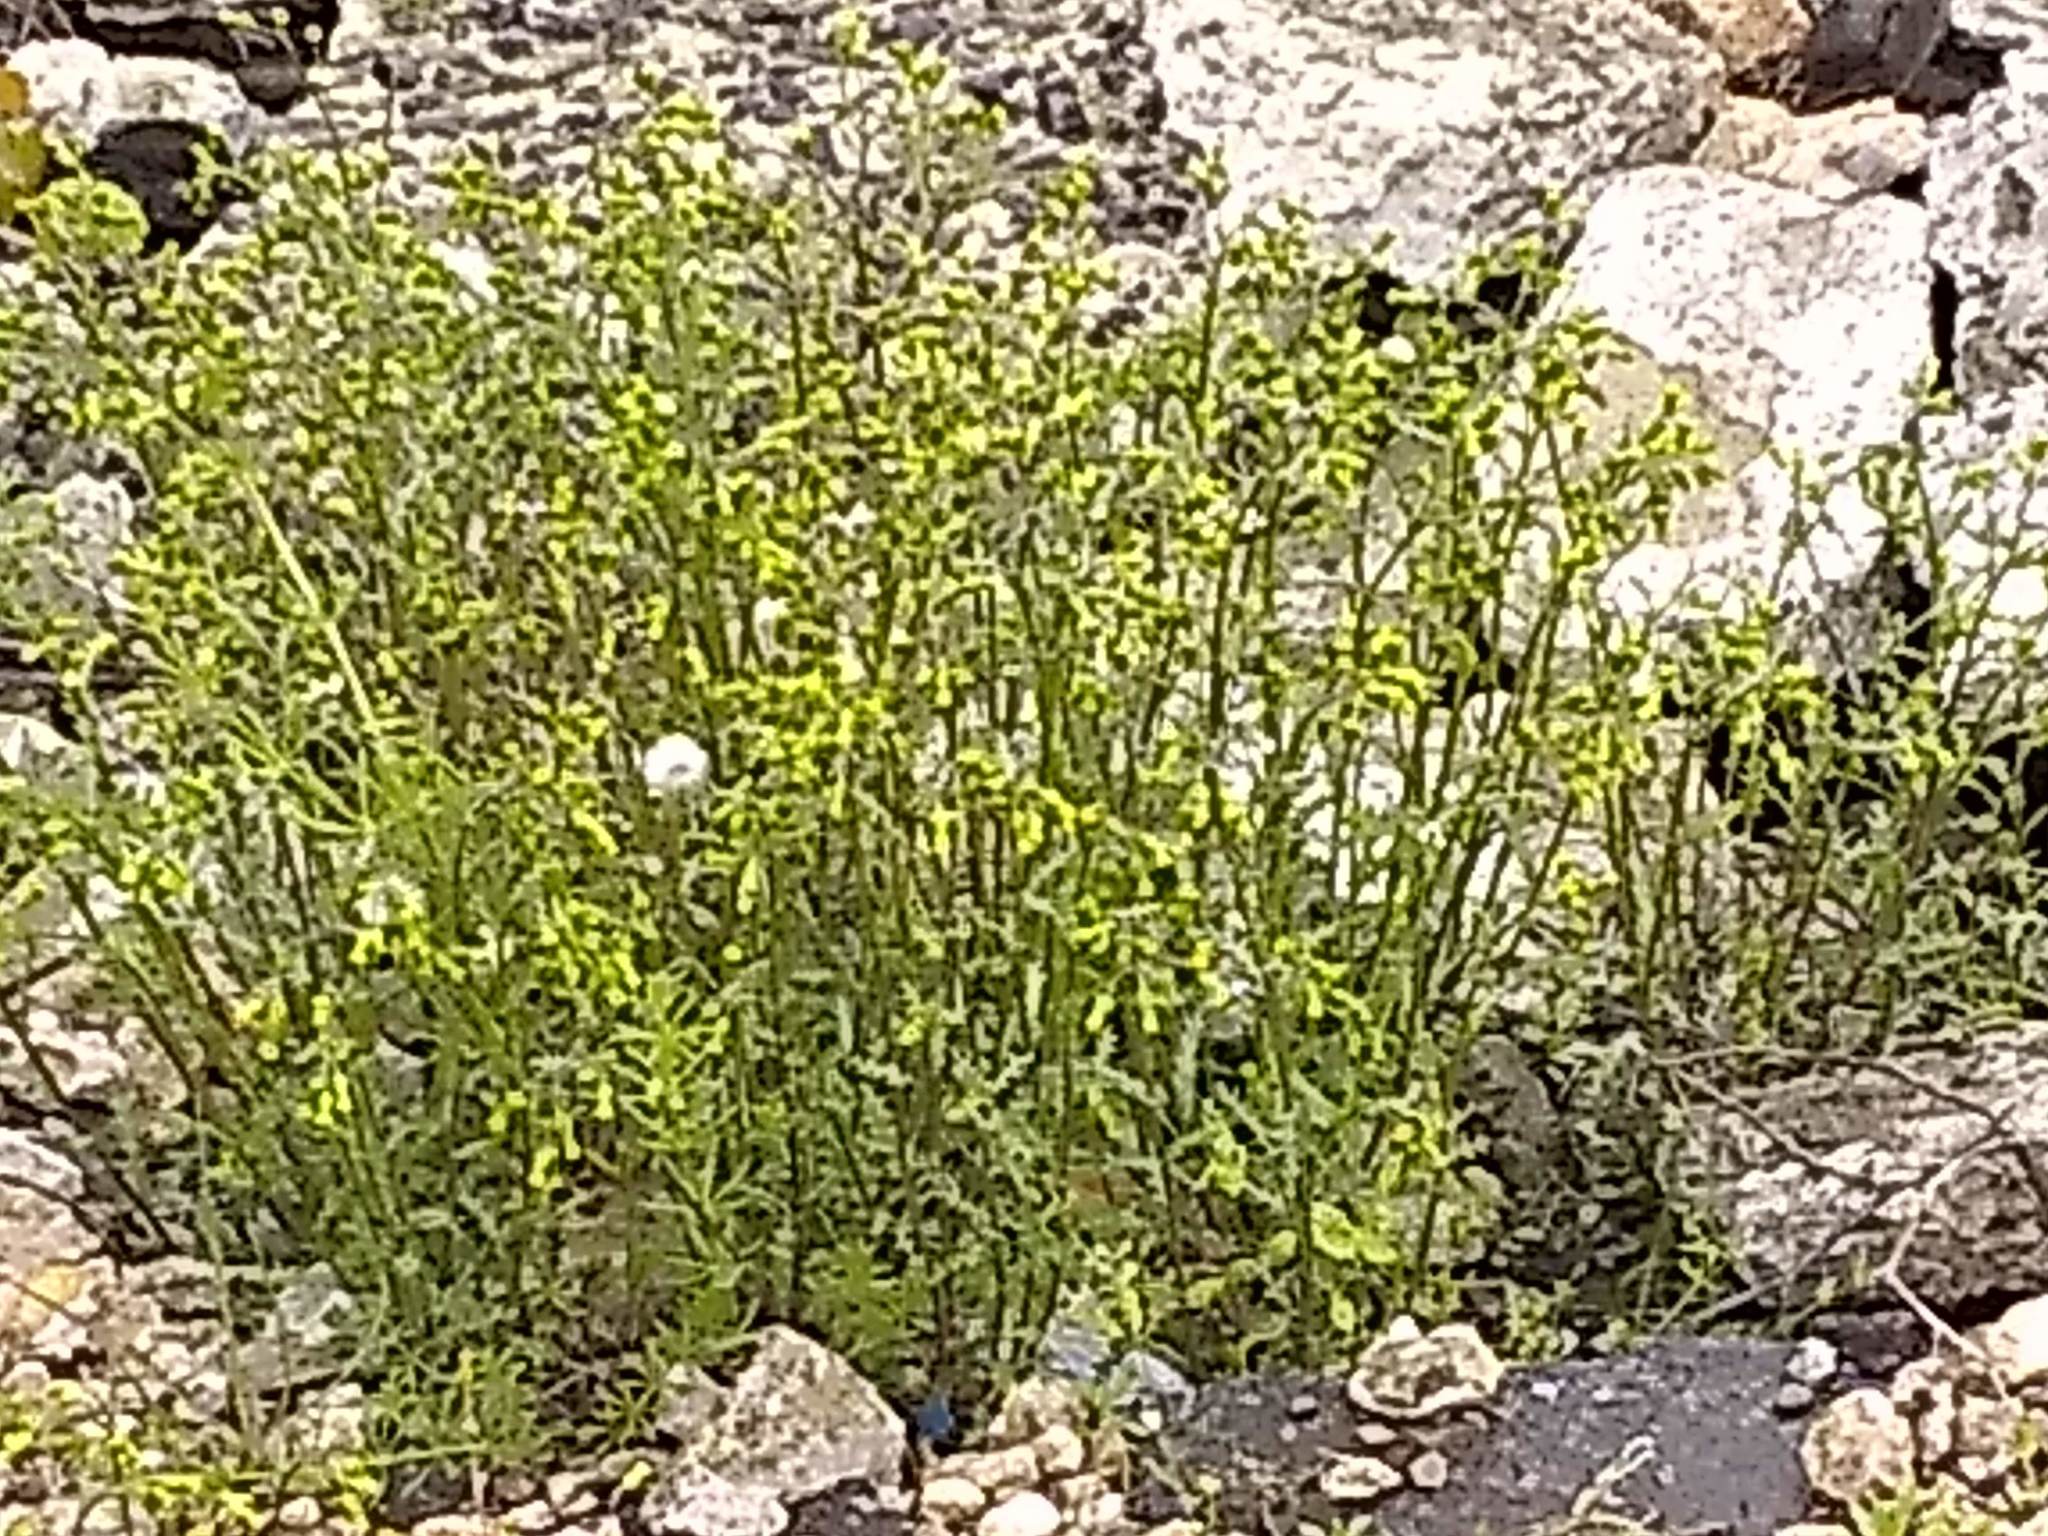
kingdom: Plantae
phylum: Tracheophyta
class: Magnoliopsida
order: Asterales
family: Asteraceae
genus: Senecio
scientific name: Senecio vulgaris
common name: Old-man-in-the-spring
